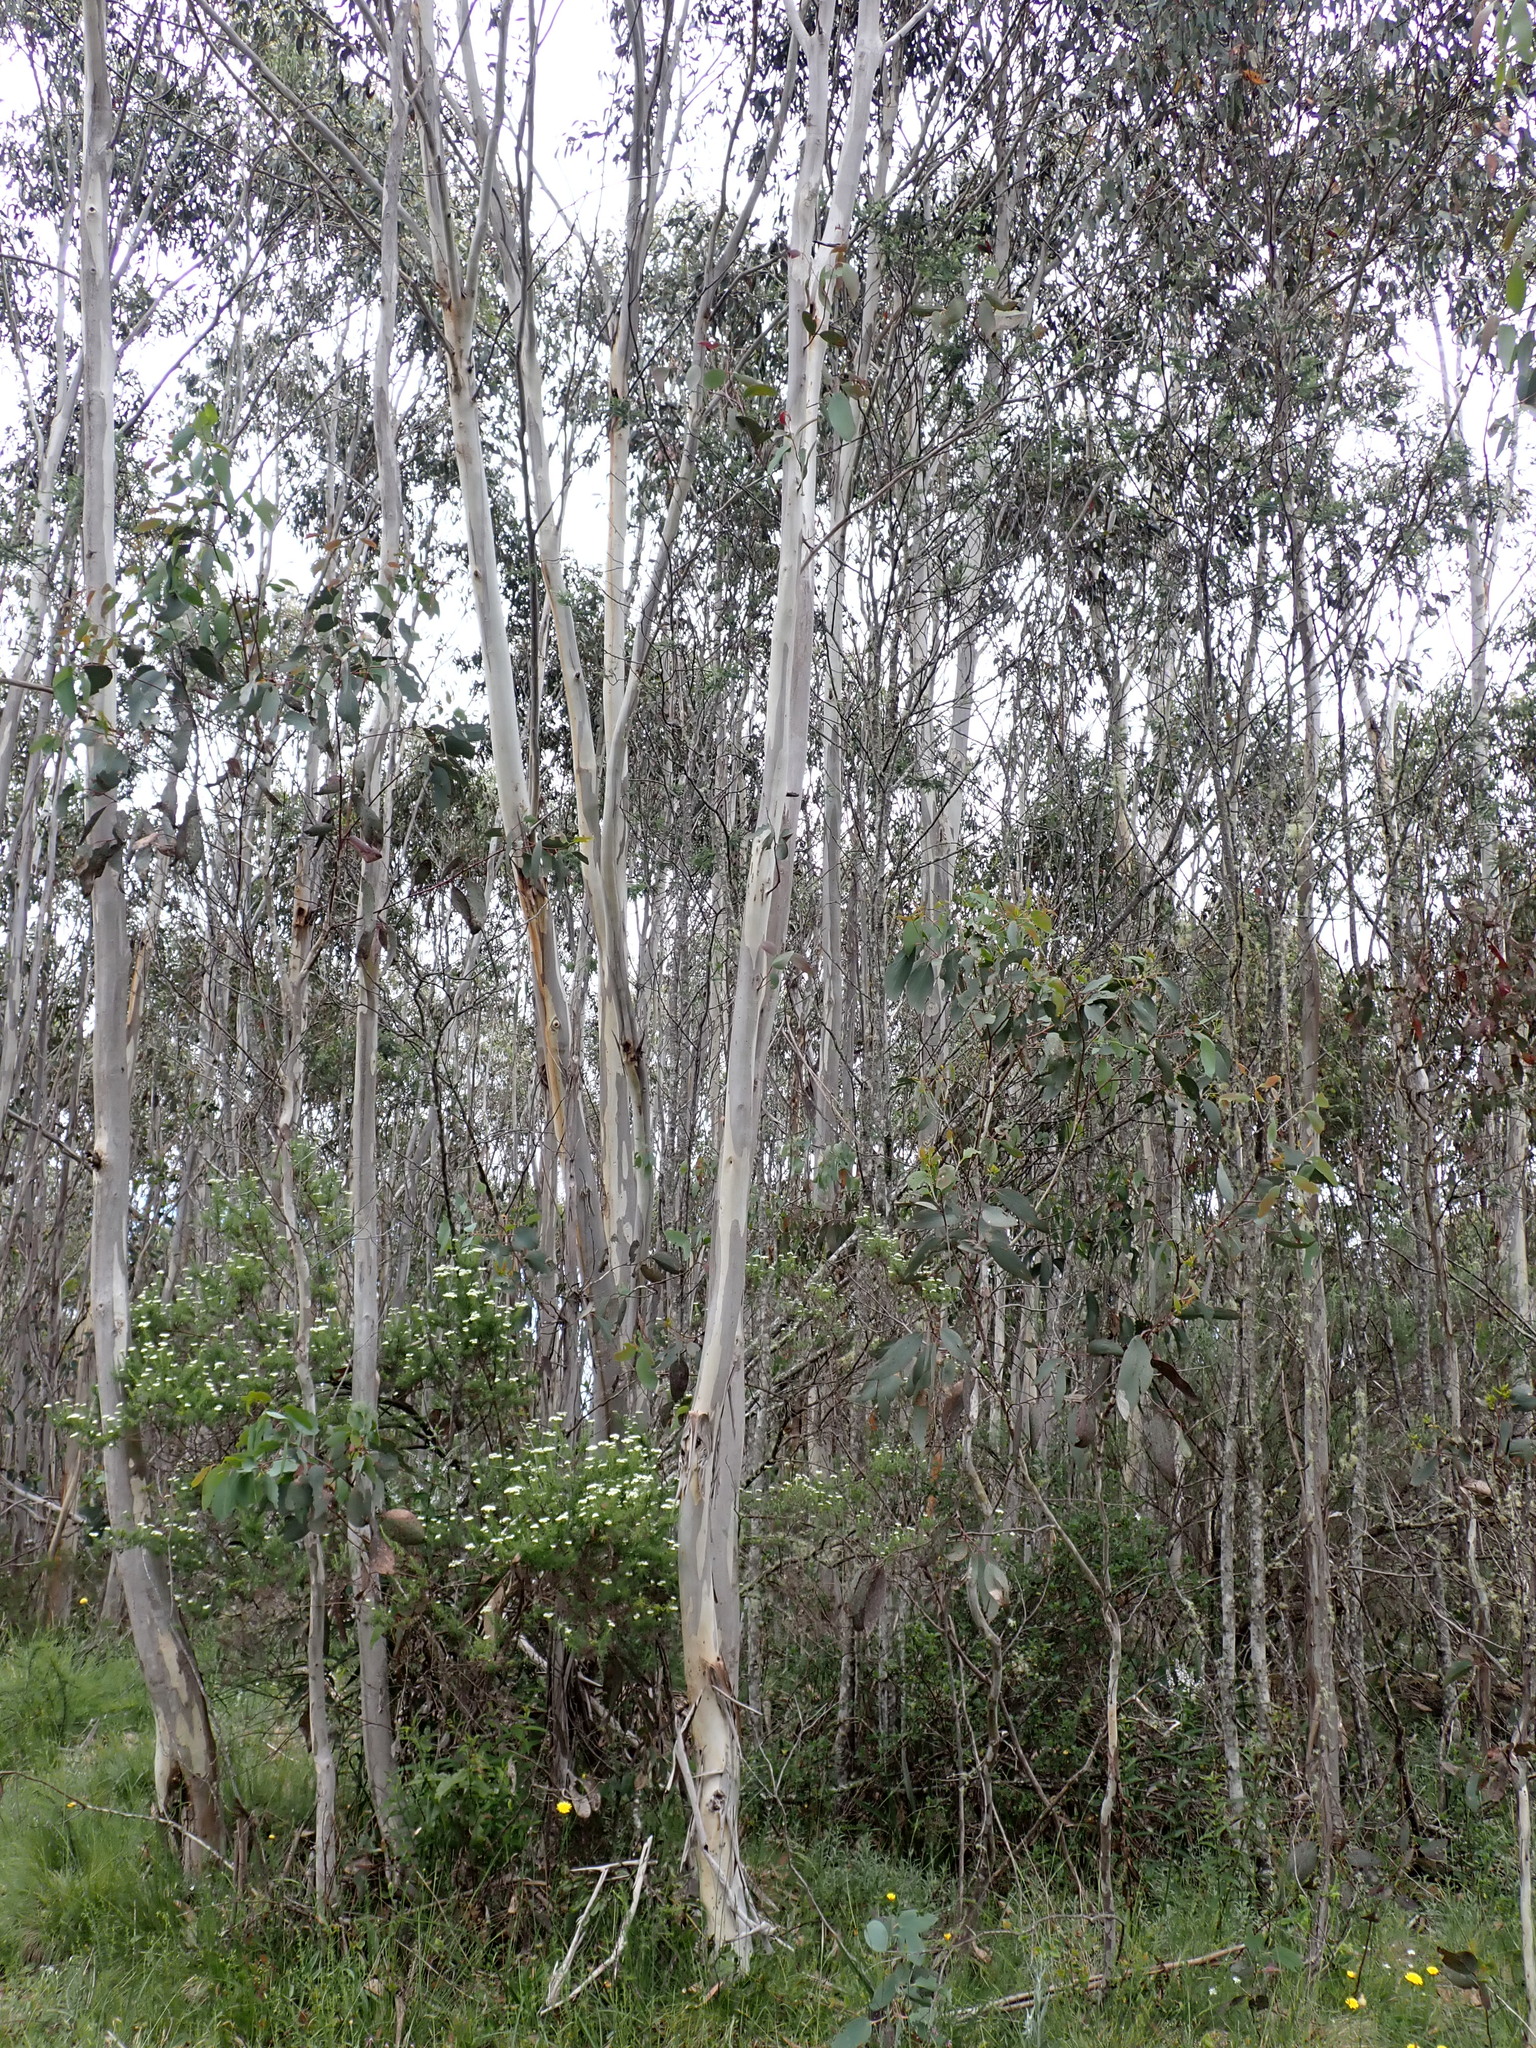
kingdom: Plantae
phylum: Tracheophyta
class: Magnoliopsida
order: Myrtales
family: Myrtaceae
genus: Eucalyptus
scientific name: Eucalyptus pauciflora
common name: Snow gum
